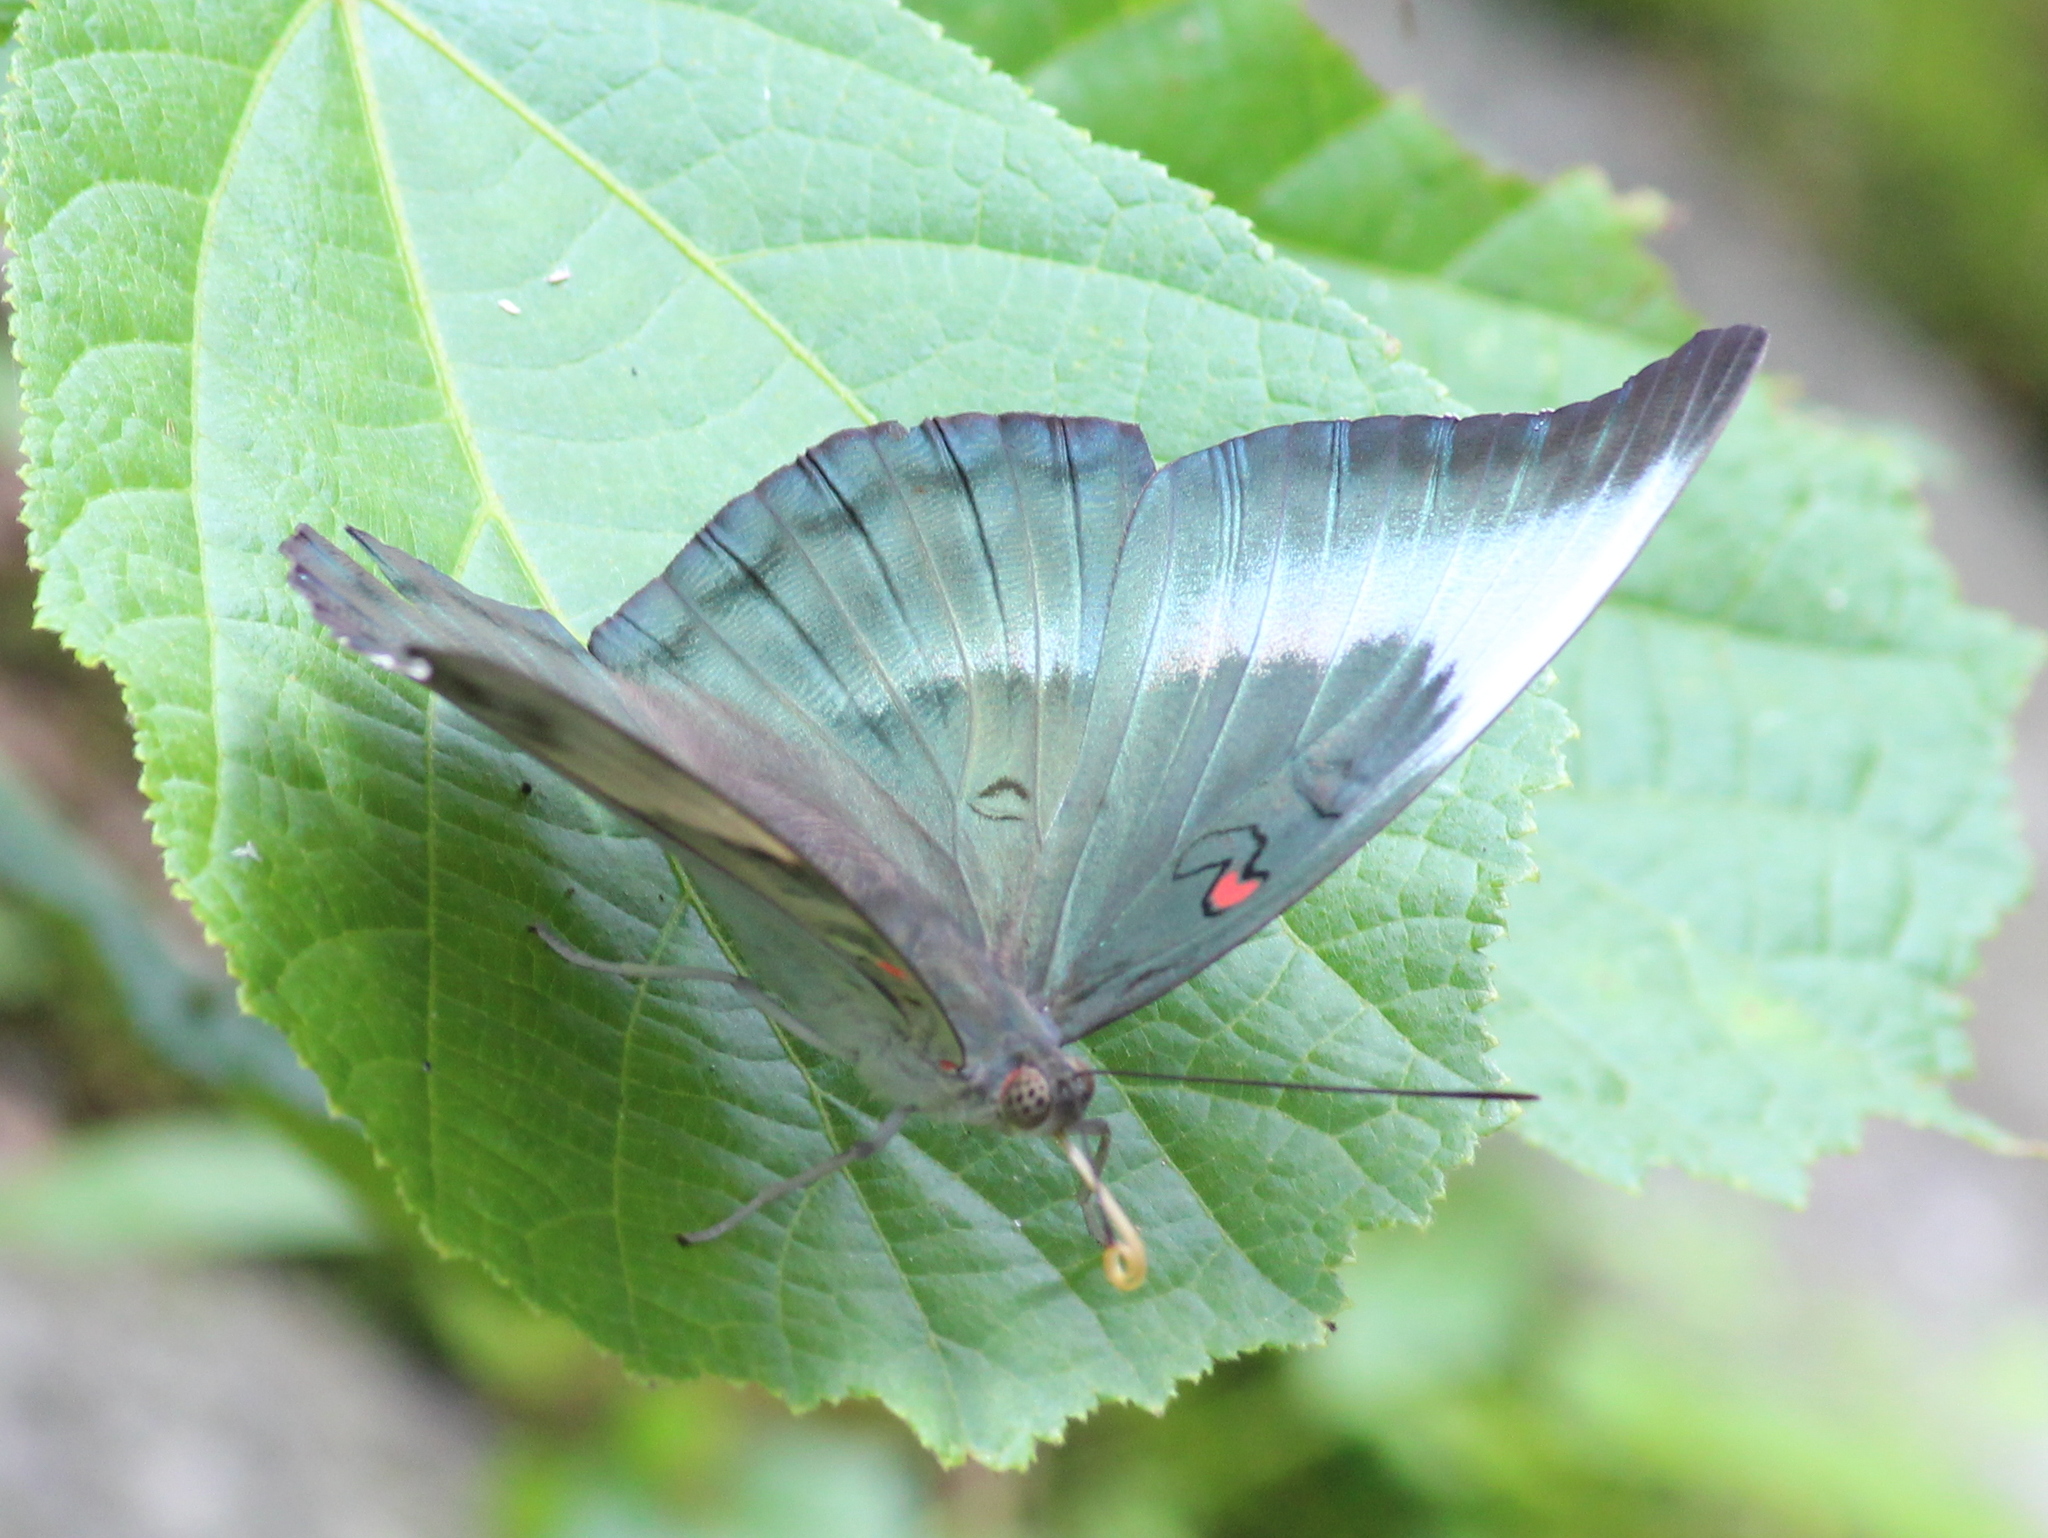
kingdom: Animalia
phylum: Arthropoda
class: Insecta
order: Lepidoptera
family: Nymphalidae
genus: Euthalia
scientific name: Euthalia Dophla evelina
